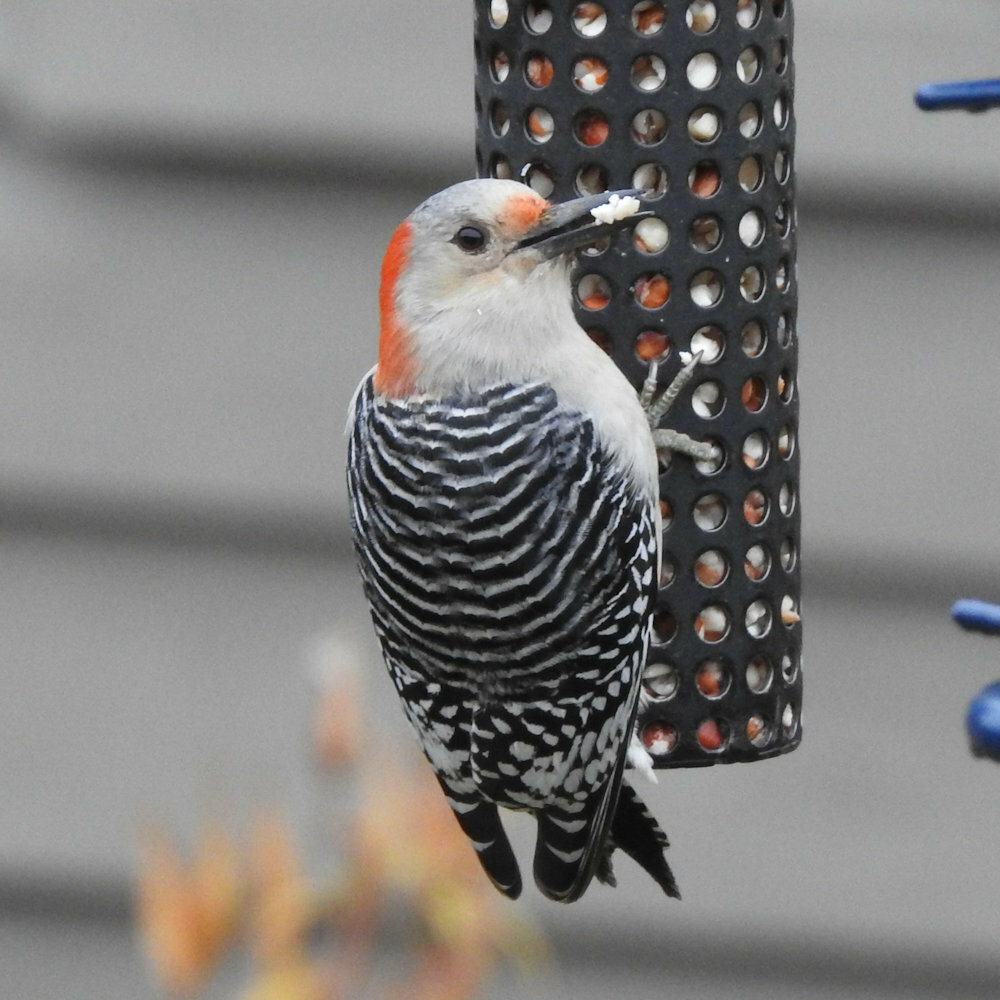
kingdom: Animalia
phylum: Chordata
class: Aves
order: Piciformes
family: Picidae
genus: Melanerpes
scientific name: Melanerpes carolinus
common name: Red-bellied woodpecker
